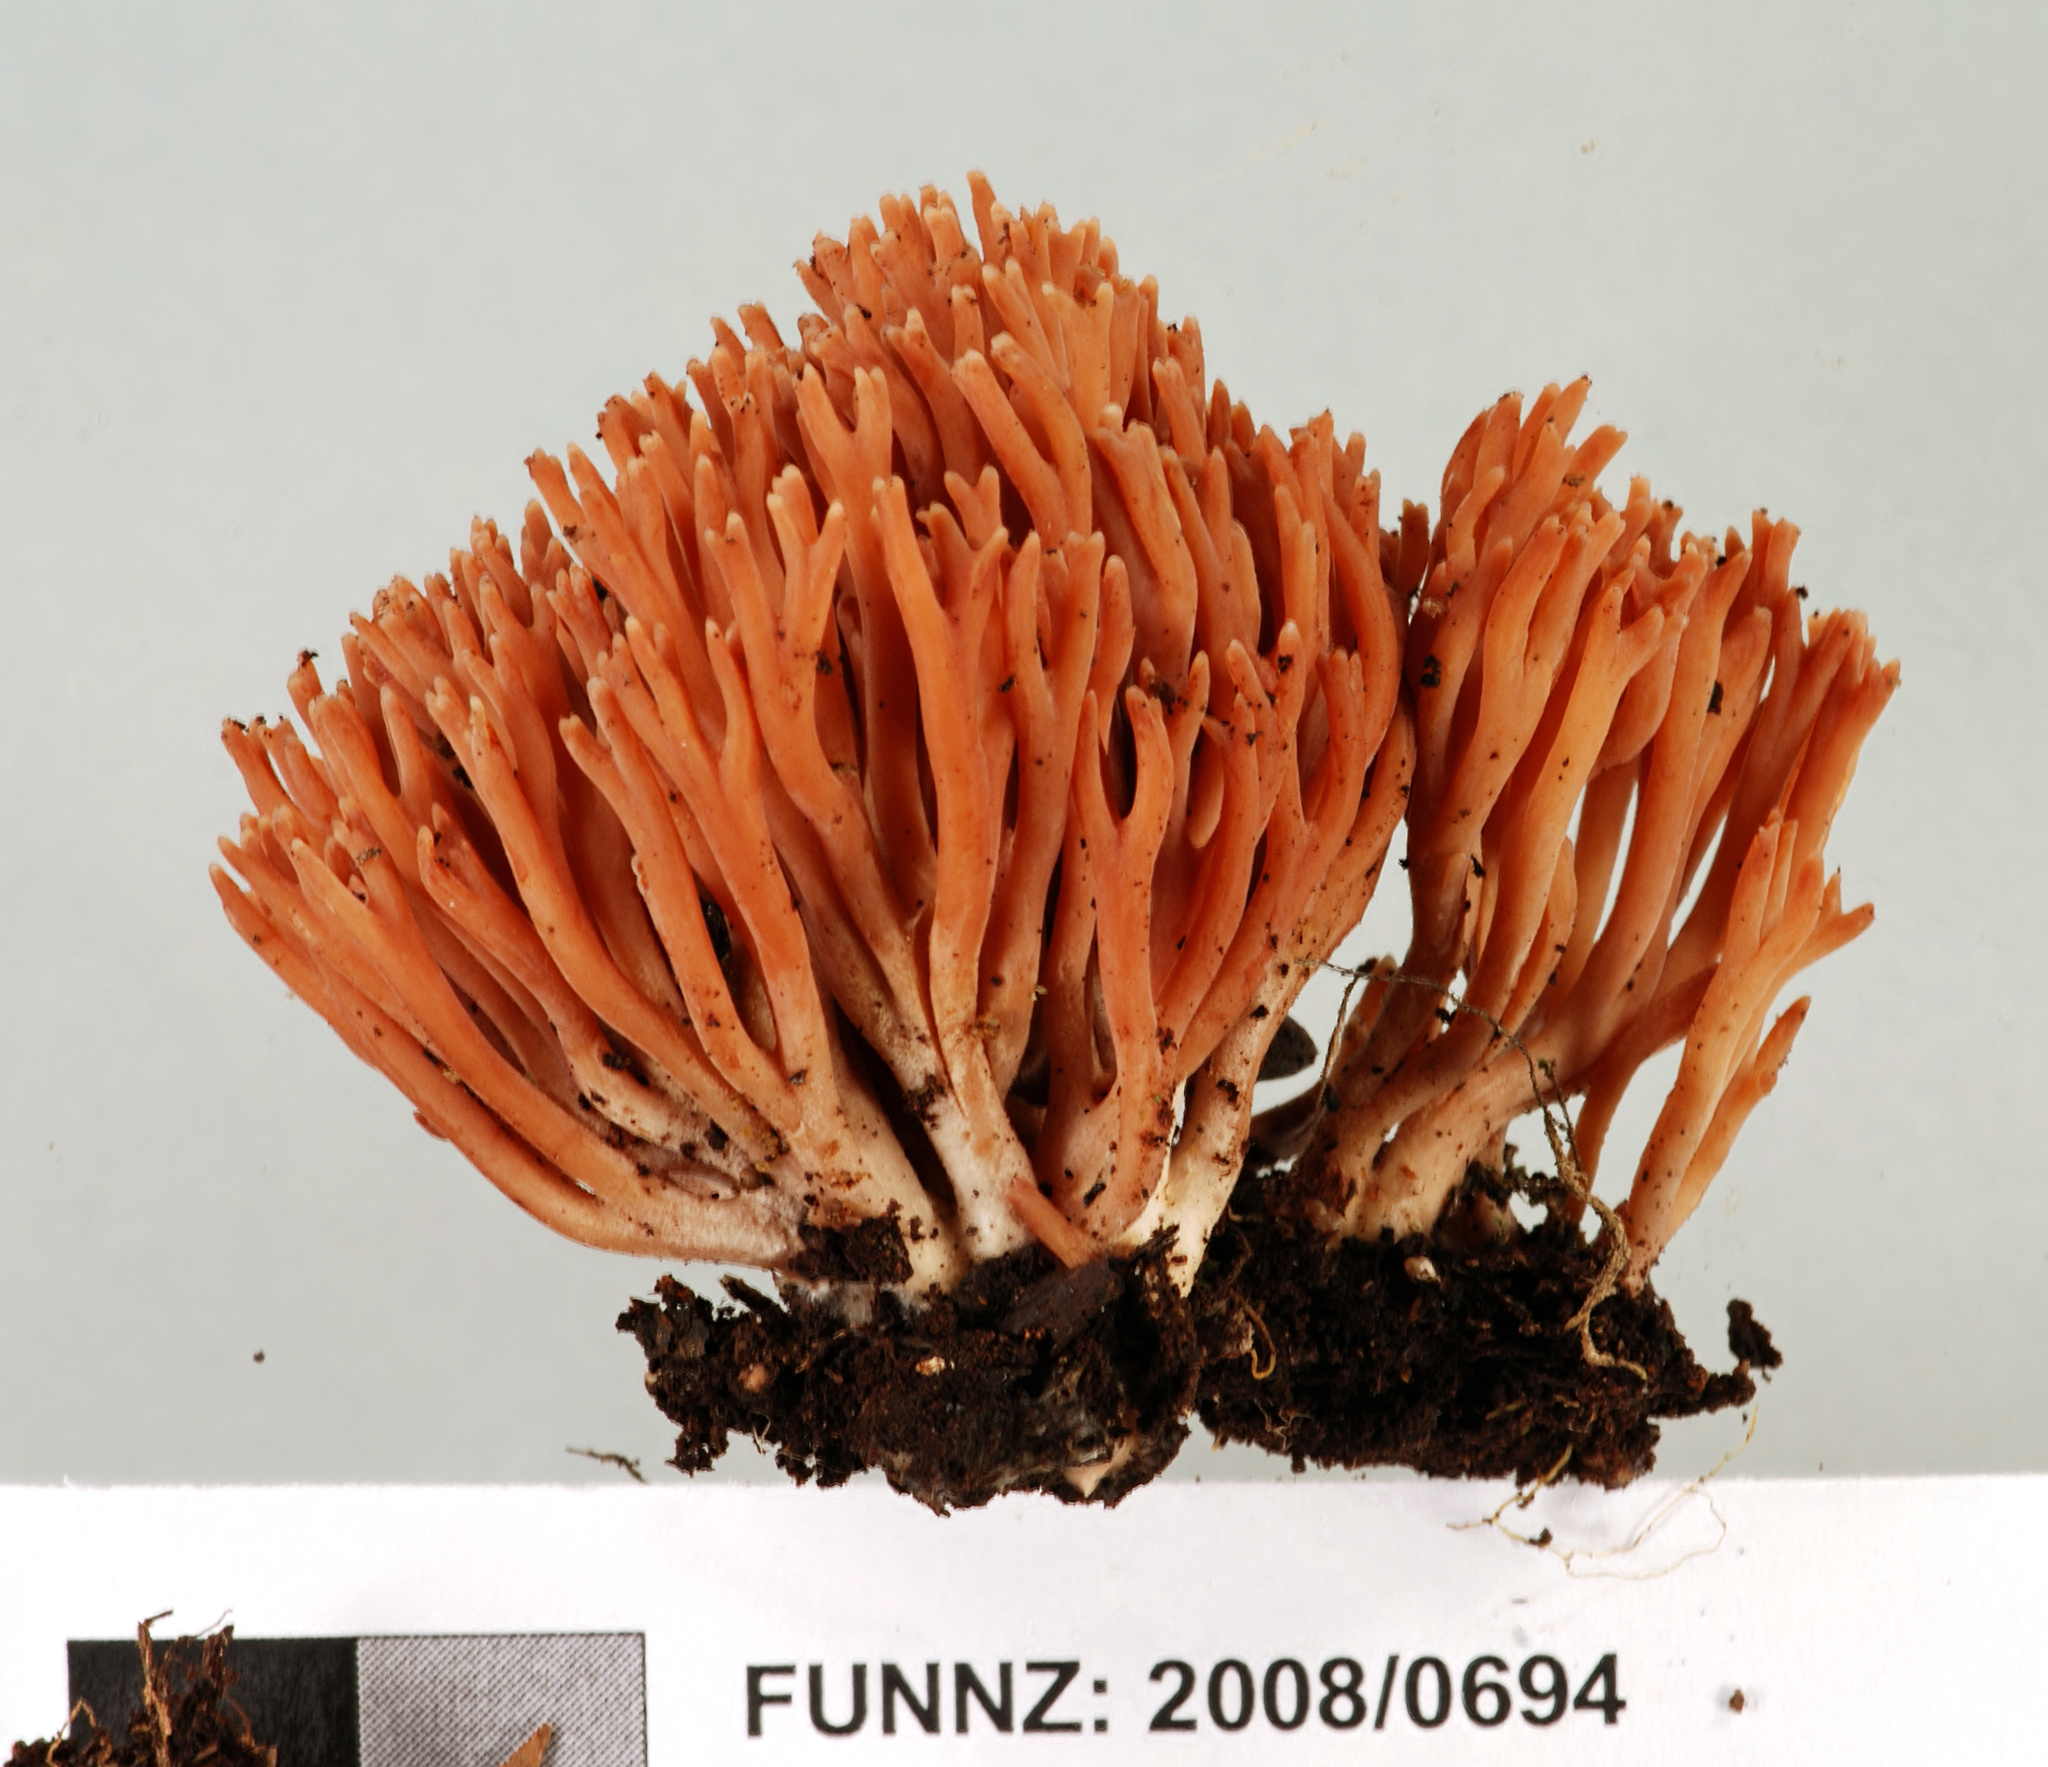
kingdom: Fungi
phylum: Basidiomycota
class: Agaricomycetes
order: Agaricales
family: Clavariaceae
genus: Ramariopsis
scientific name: Ramariopsis ramarioides
